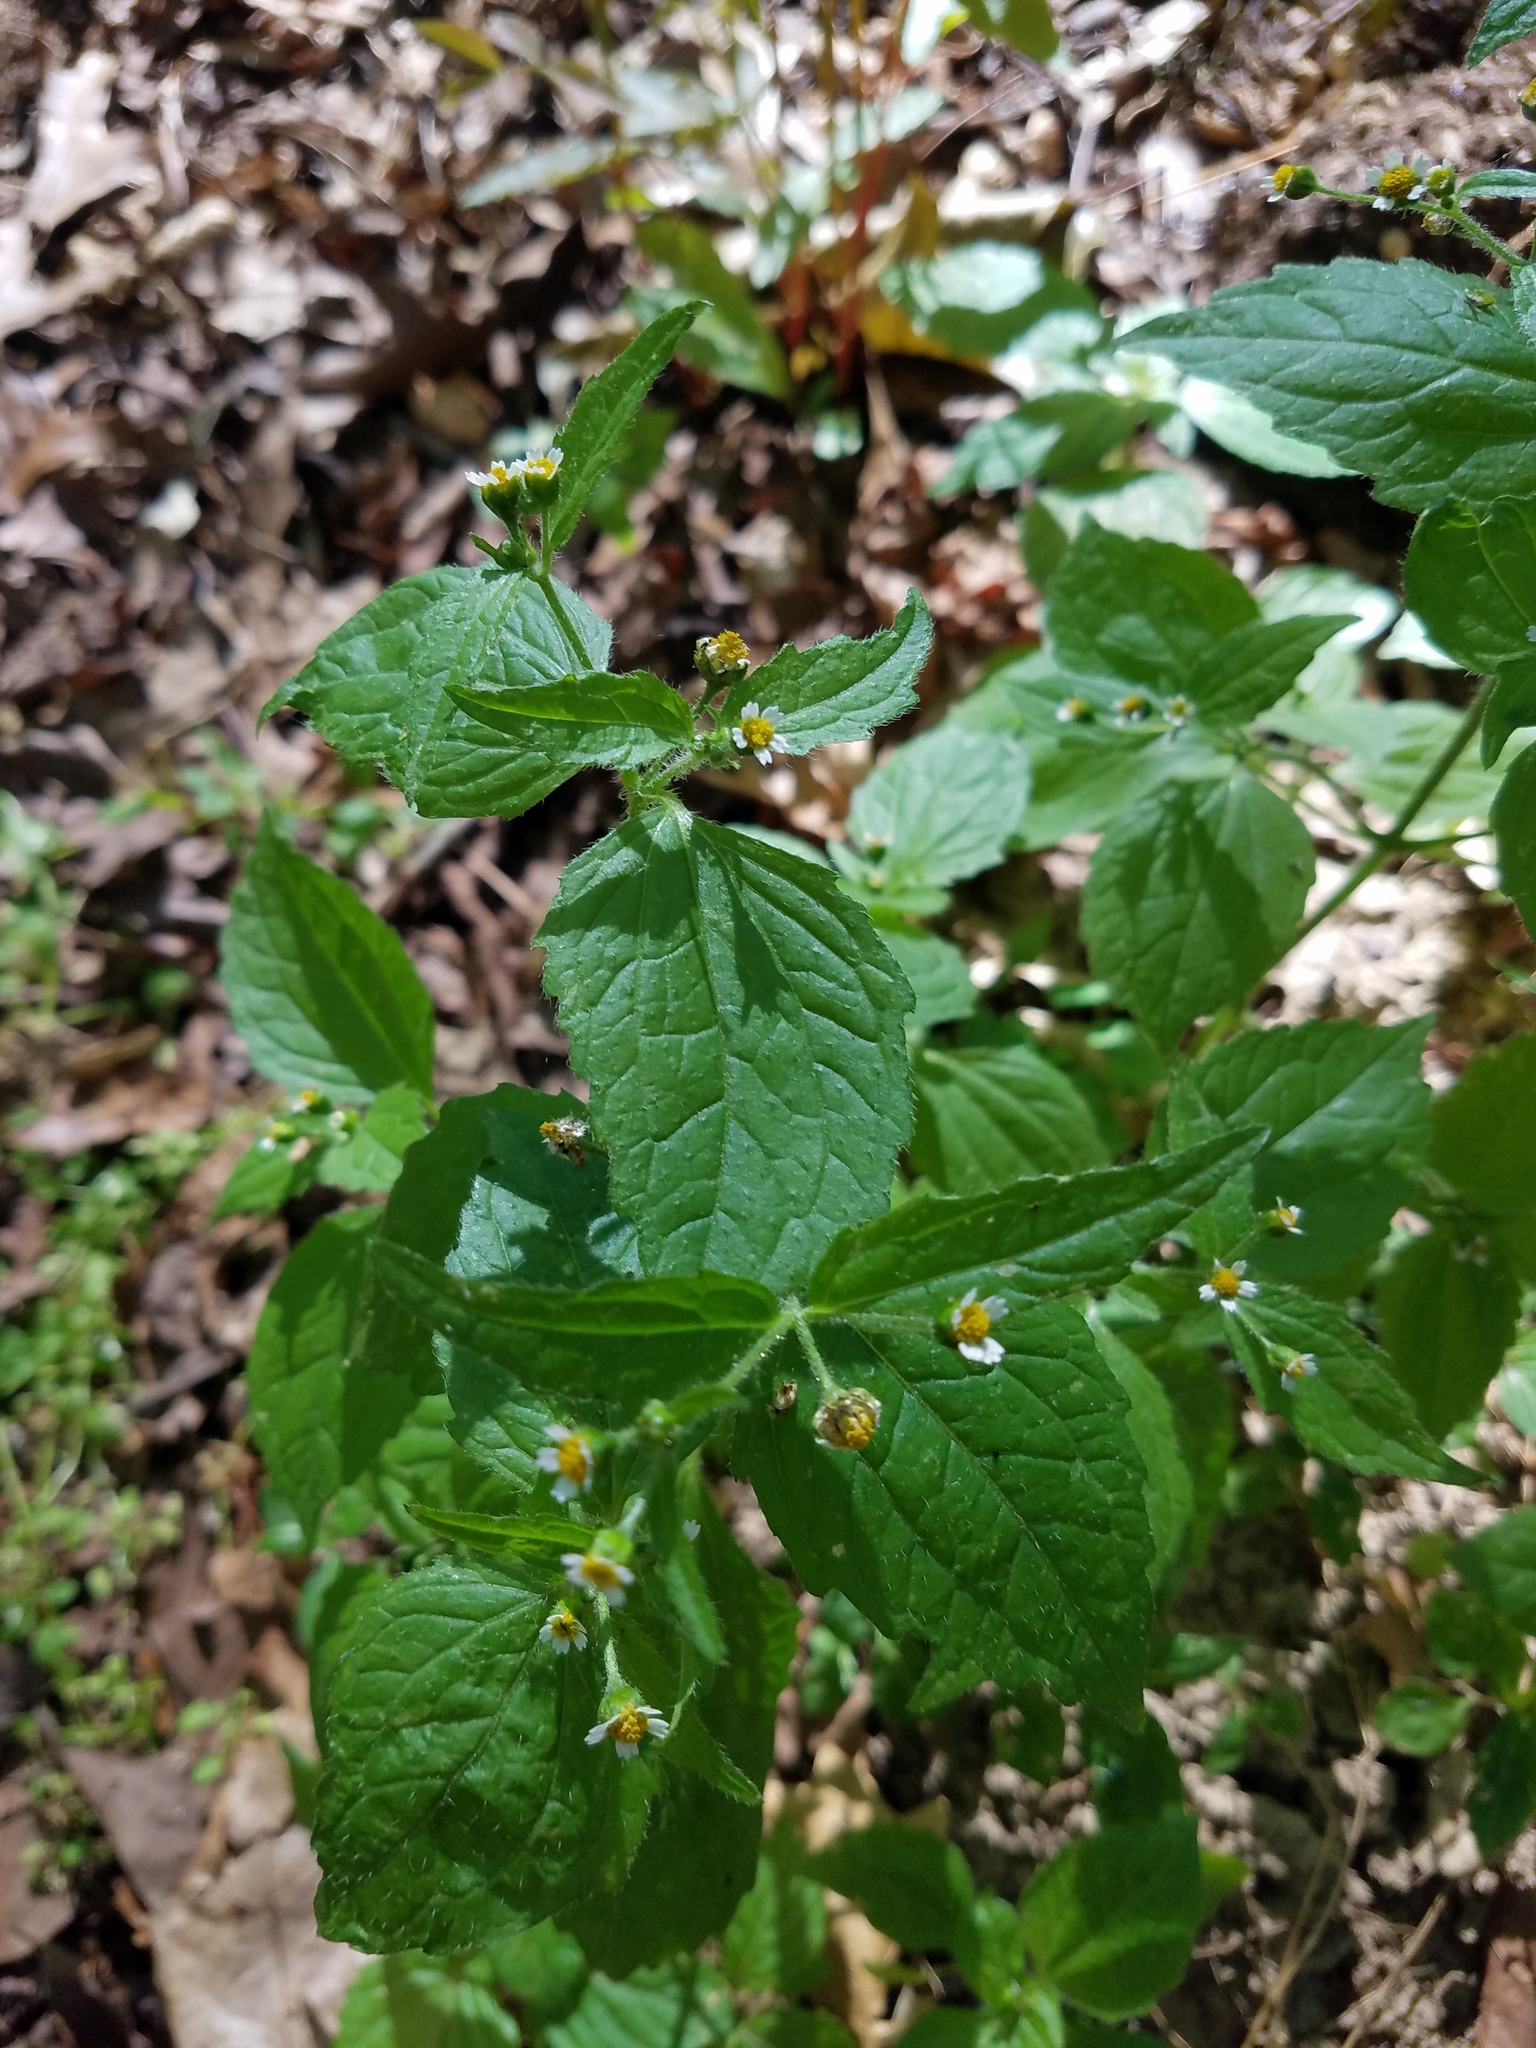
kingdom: Plantae
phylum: Tracheophyta
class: Magnoliopsida
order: Asterales
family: Asteraceae
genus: Galinsoga
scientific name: Galinsoga quadriradiata
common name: Shaggy soldier
